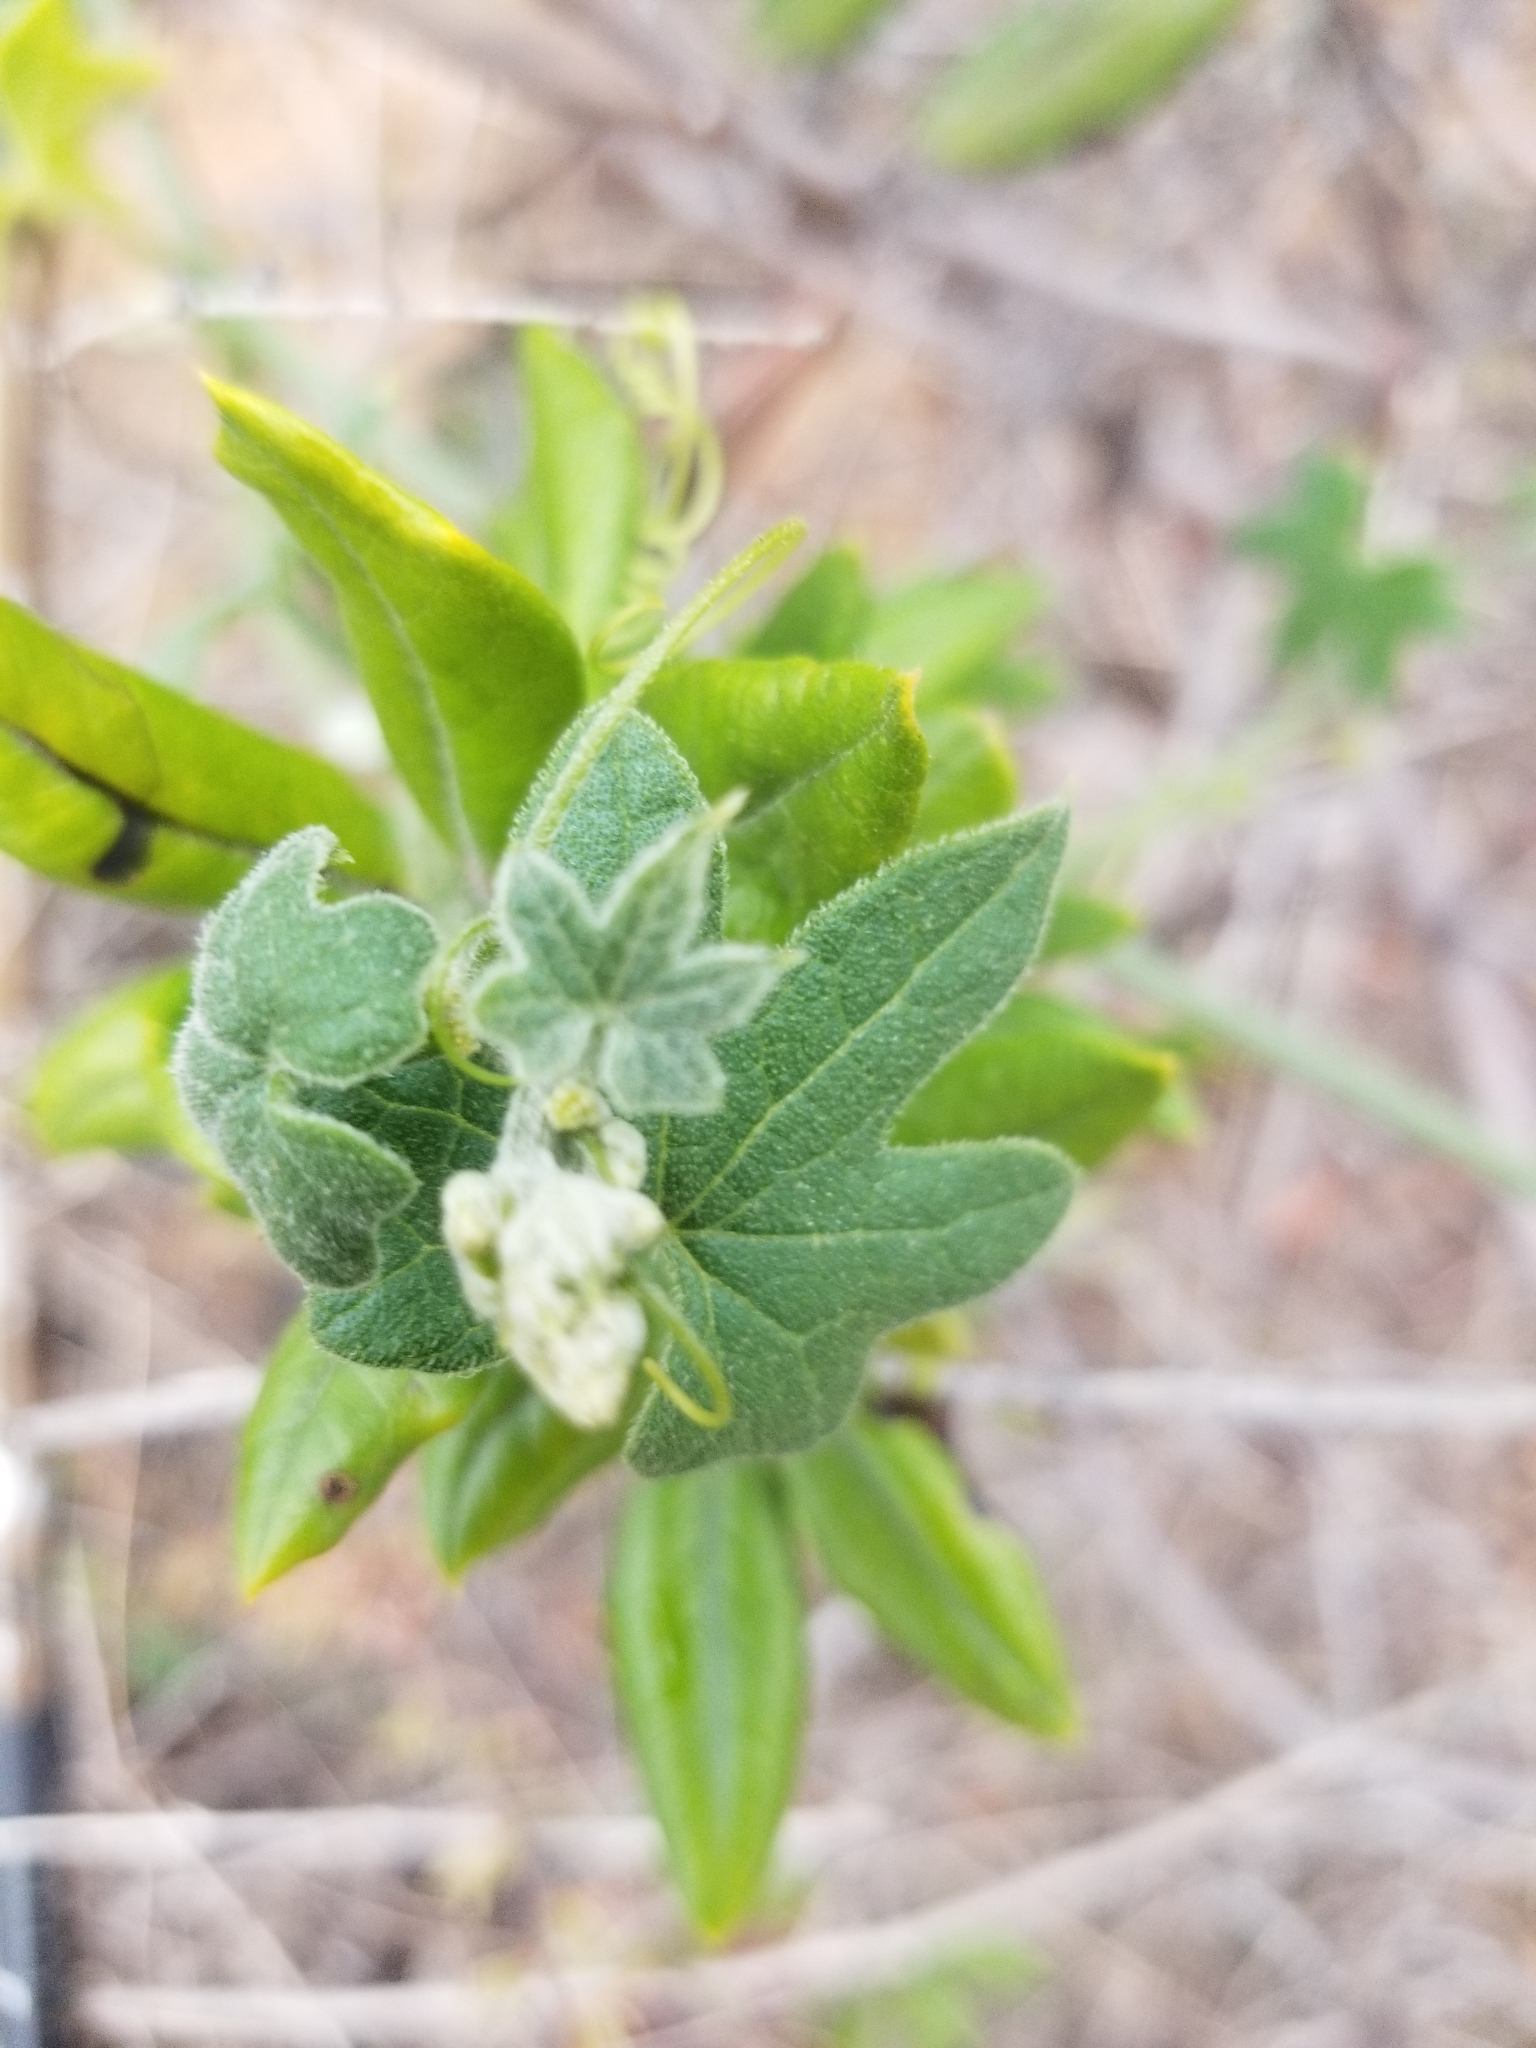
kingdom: Plantae
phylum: Tracheophyta
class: Magnoliopsida
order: Cucurbitales
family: Cucurbitaceae
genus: Marah
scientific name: Marah macrocarpa
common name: Cucamonga manroot
